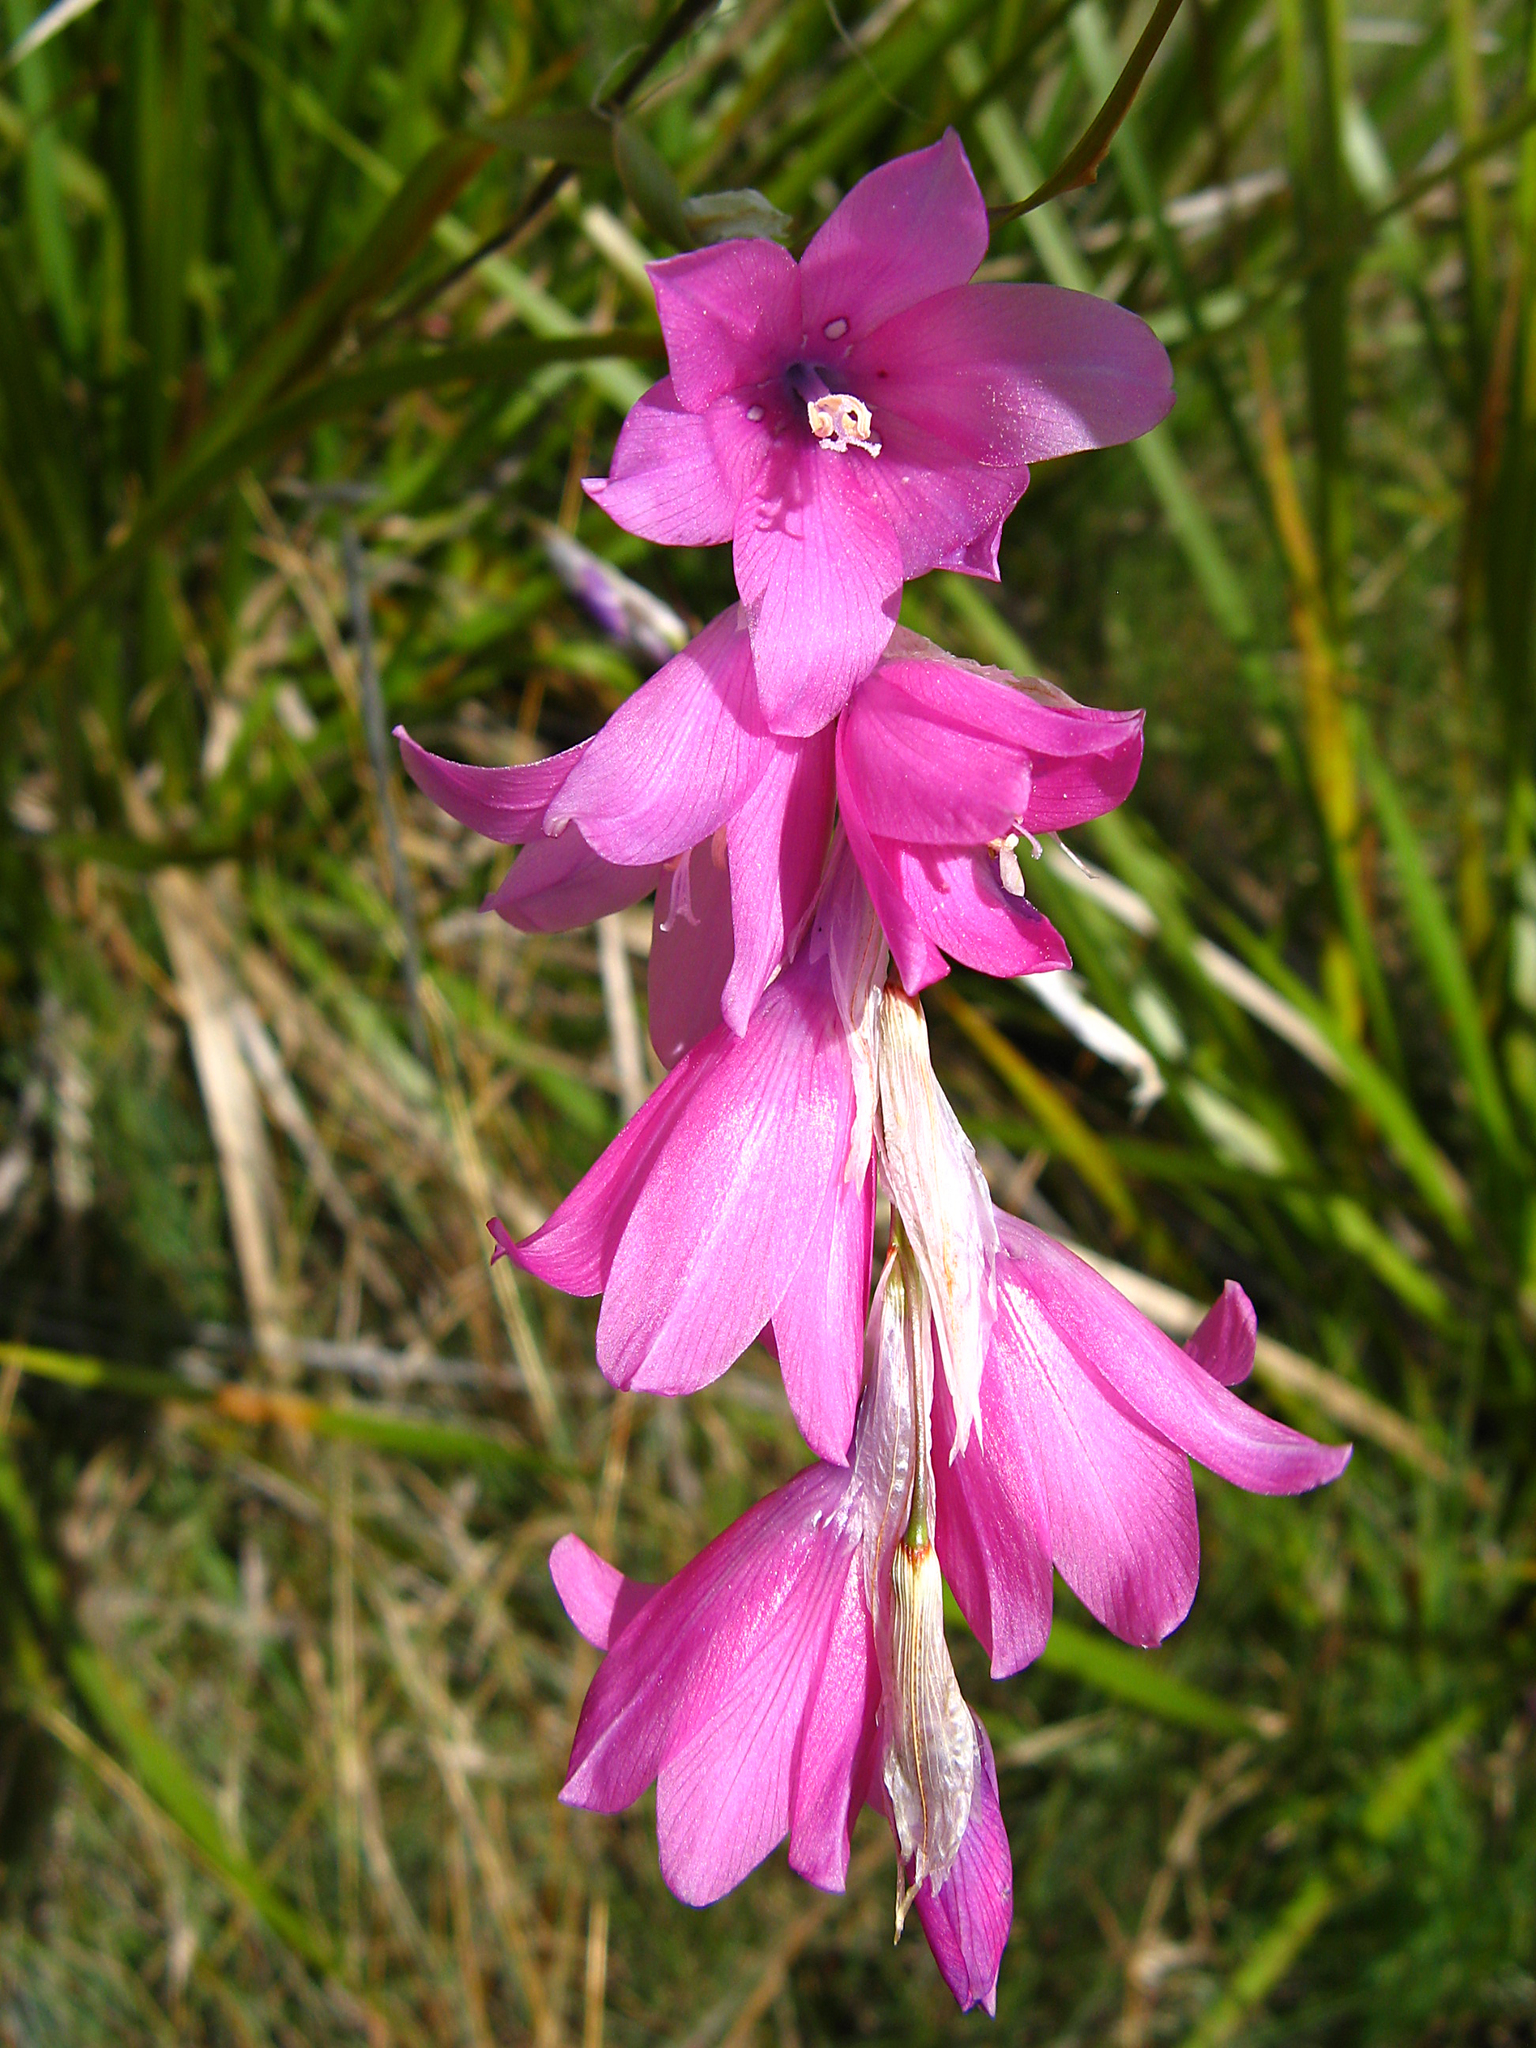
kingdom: Plantae
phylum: Tracheophyta
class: Liliopsida
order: Asparagales
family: Iridaceae
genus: Dierama
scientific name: Dierama dracomontanum
